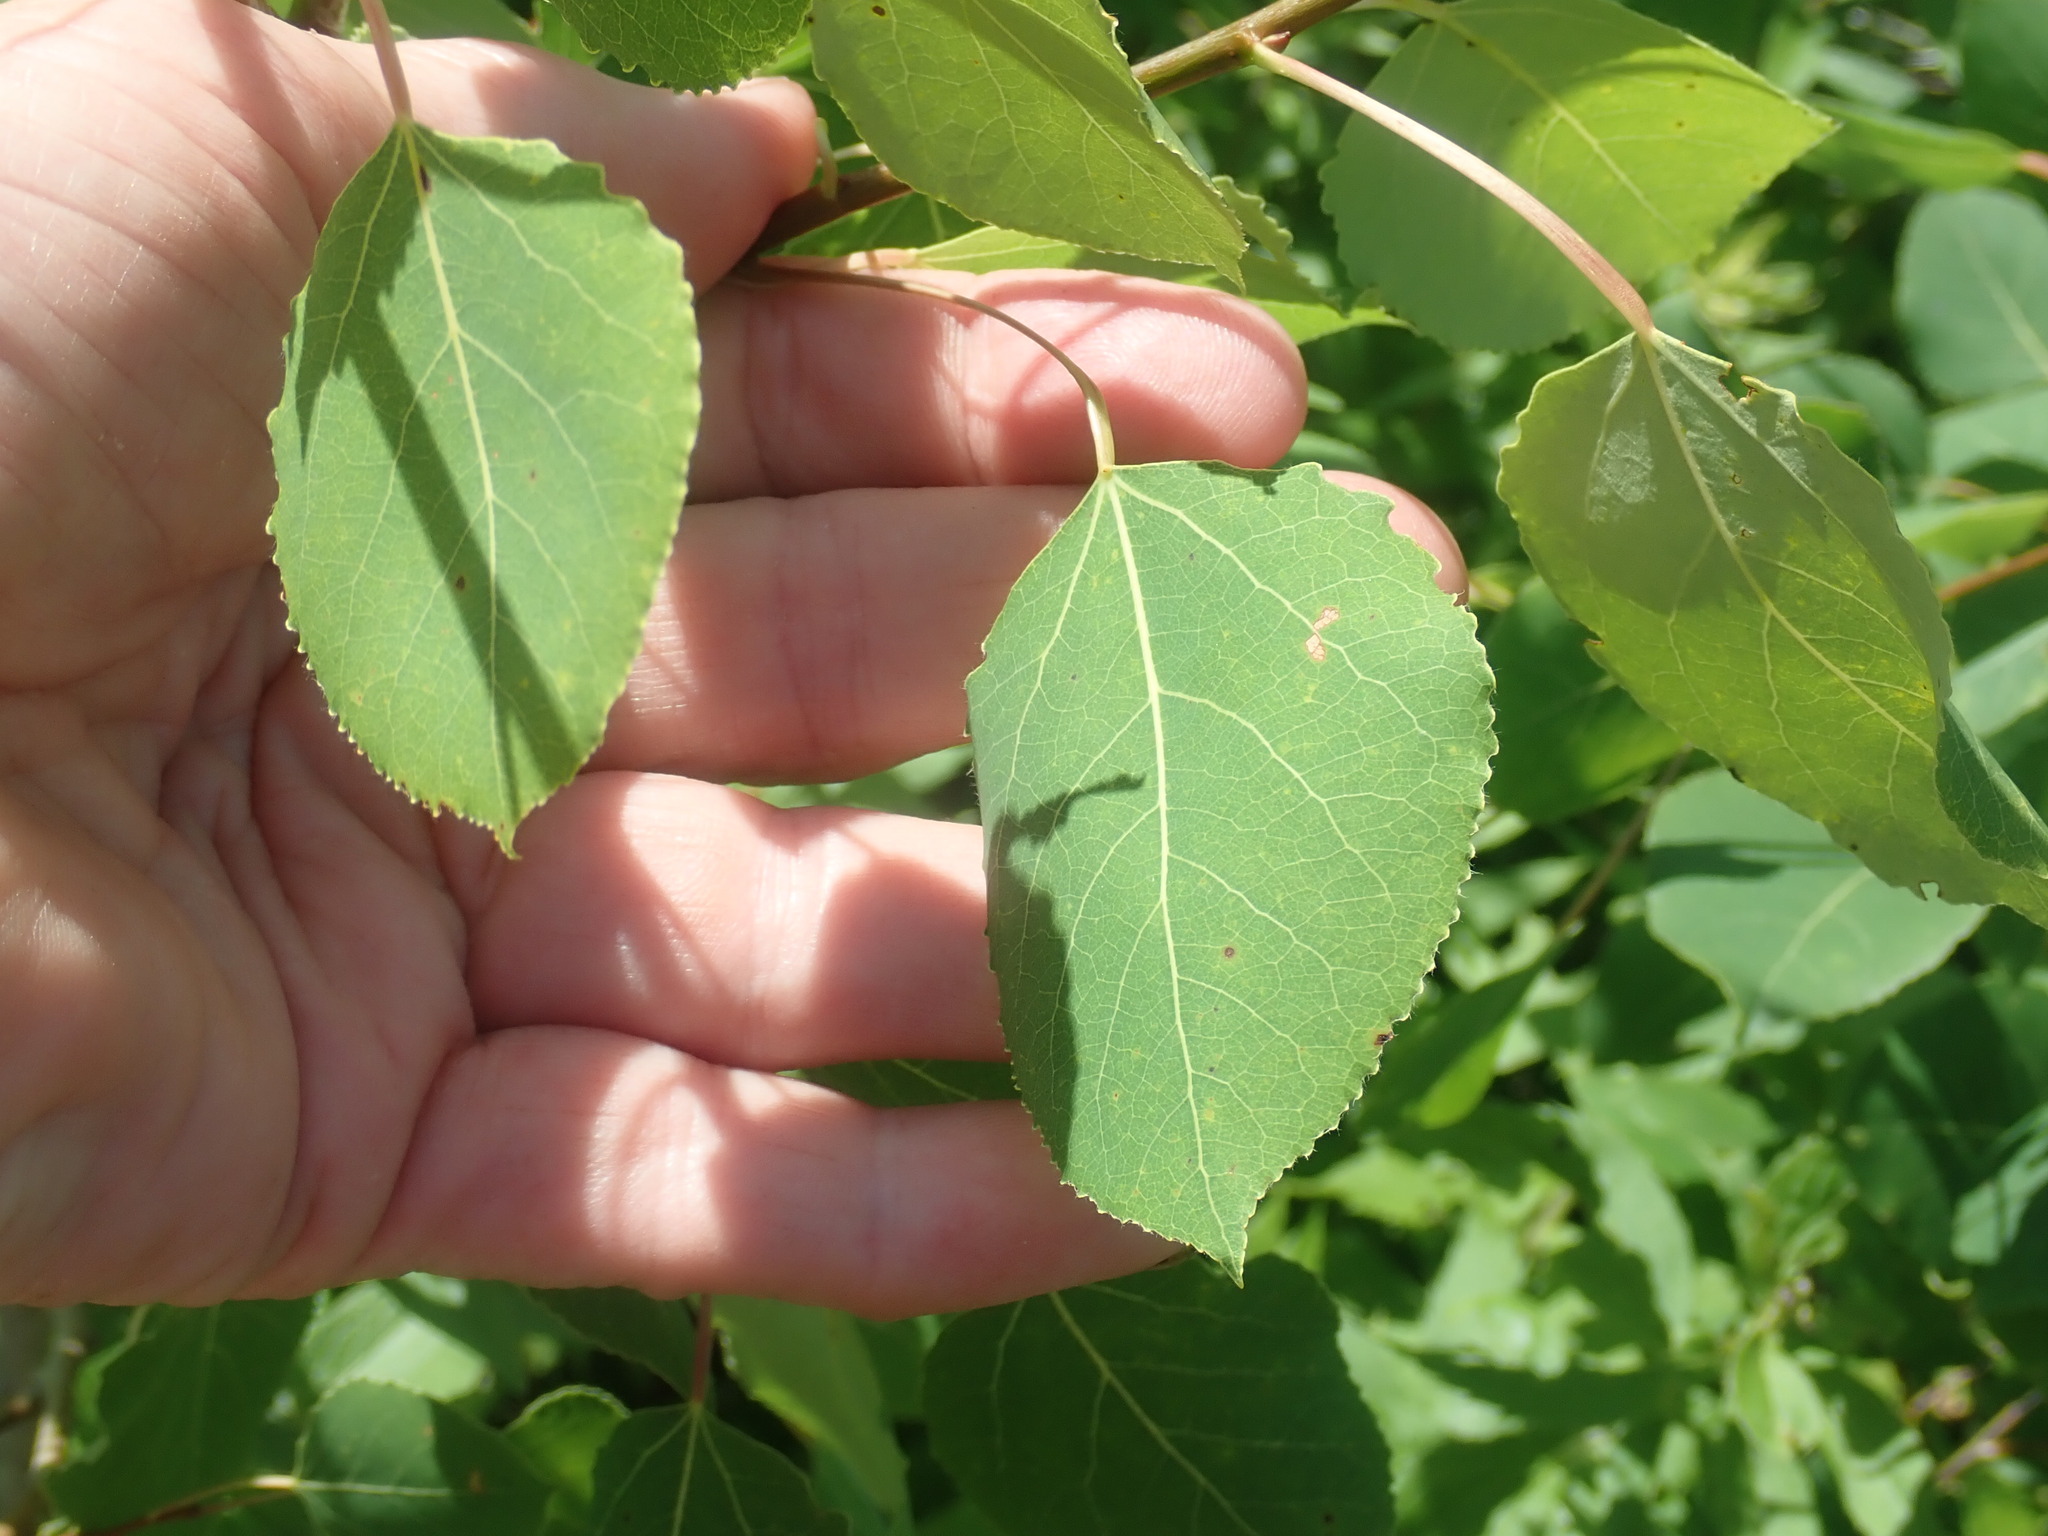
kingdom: Plantae
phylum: Tracheophyta
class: Magnoliopsida
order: Malpighiales
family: Salicaceae
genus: Populus
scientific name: Populus tremuloides
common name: Quaking aspen
